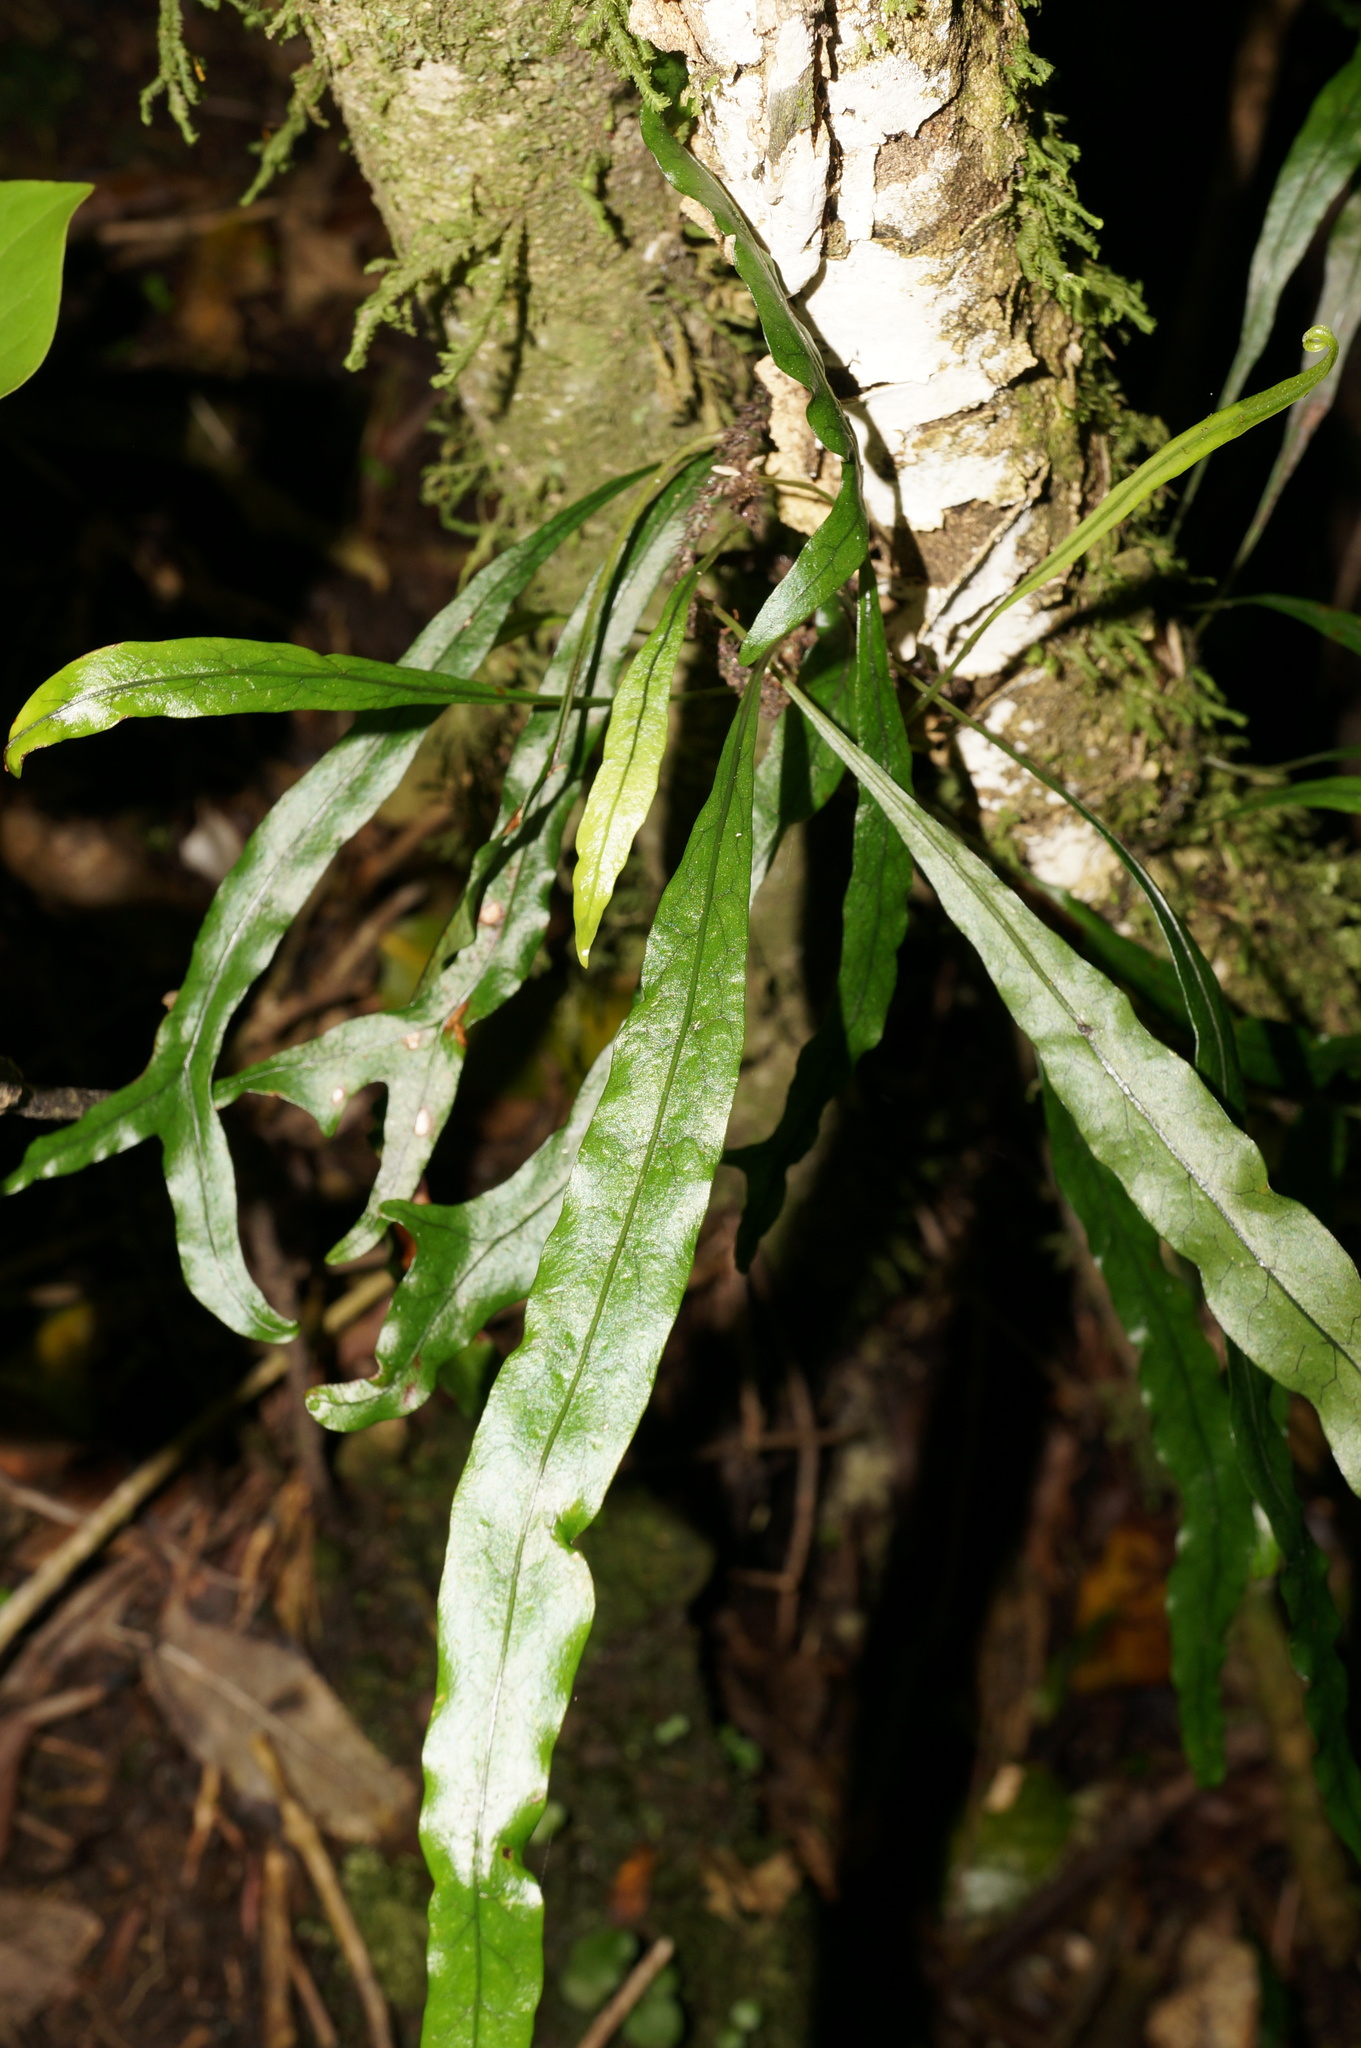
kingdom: Plantae
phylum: Tracheophyta
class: Polypodiopsida
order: Polypodiales
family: Polypodiaceae
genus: Lecanopteris
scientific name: Lecanopteris scandens
